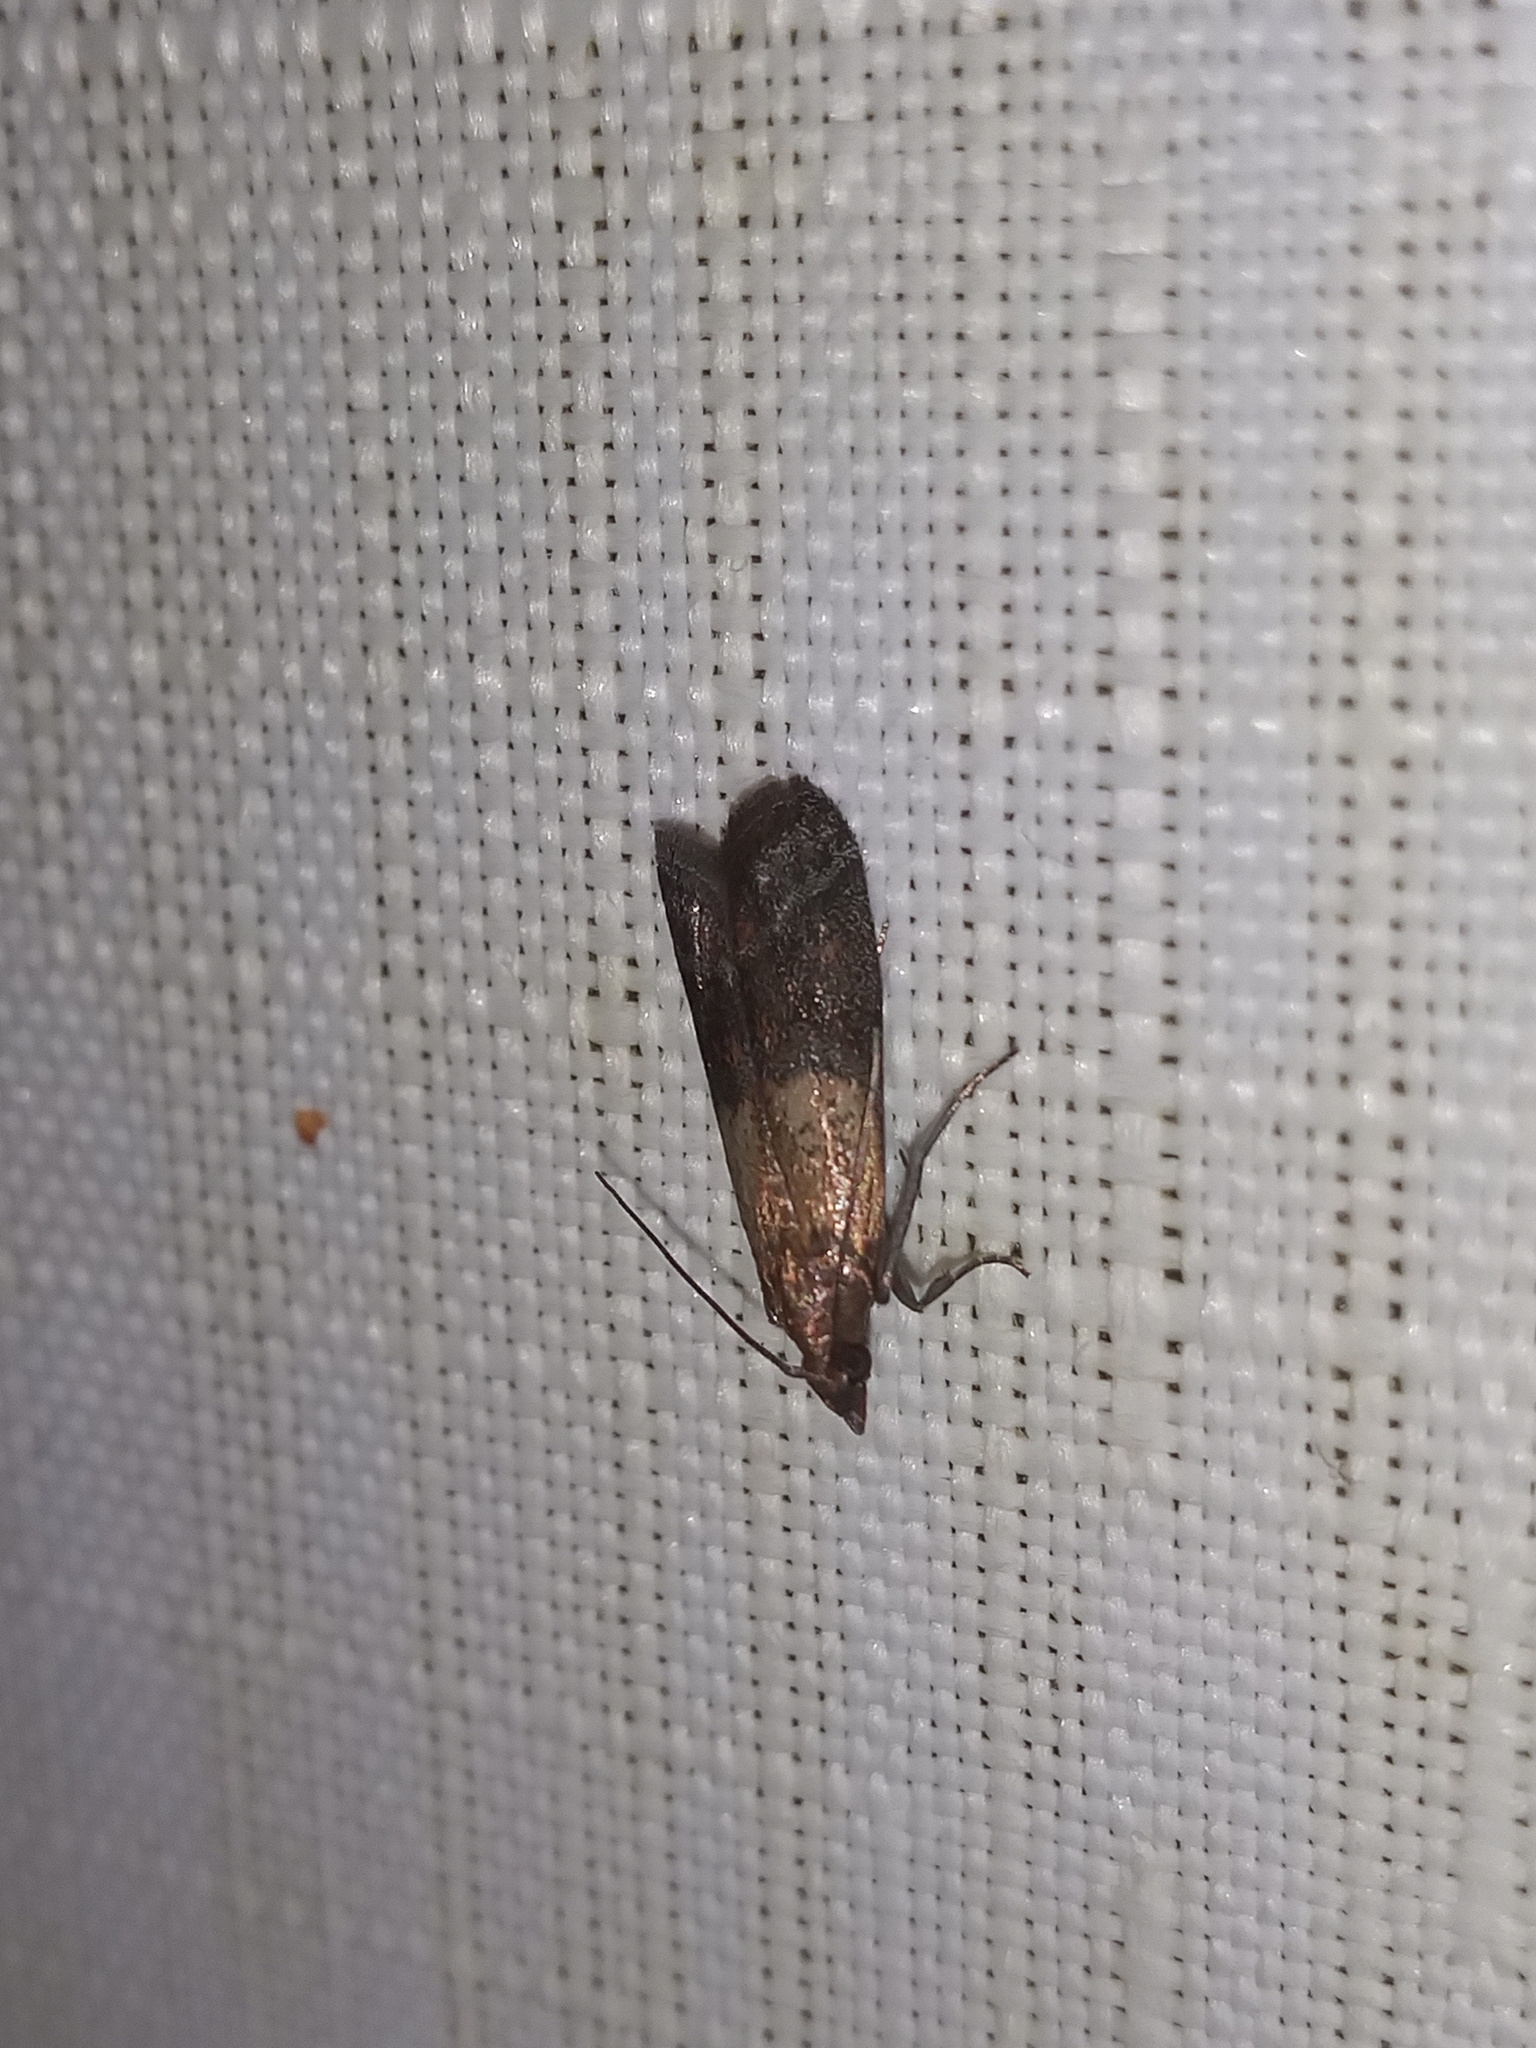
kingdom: Animalia
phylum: Arthropoda
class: Insecta
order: Lepidoptera
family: Pyralidae
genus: Plodia
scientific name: Plodia interpunctella
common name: Indian meal moth
